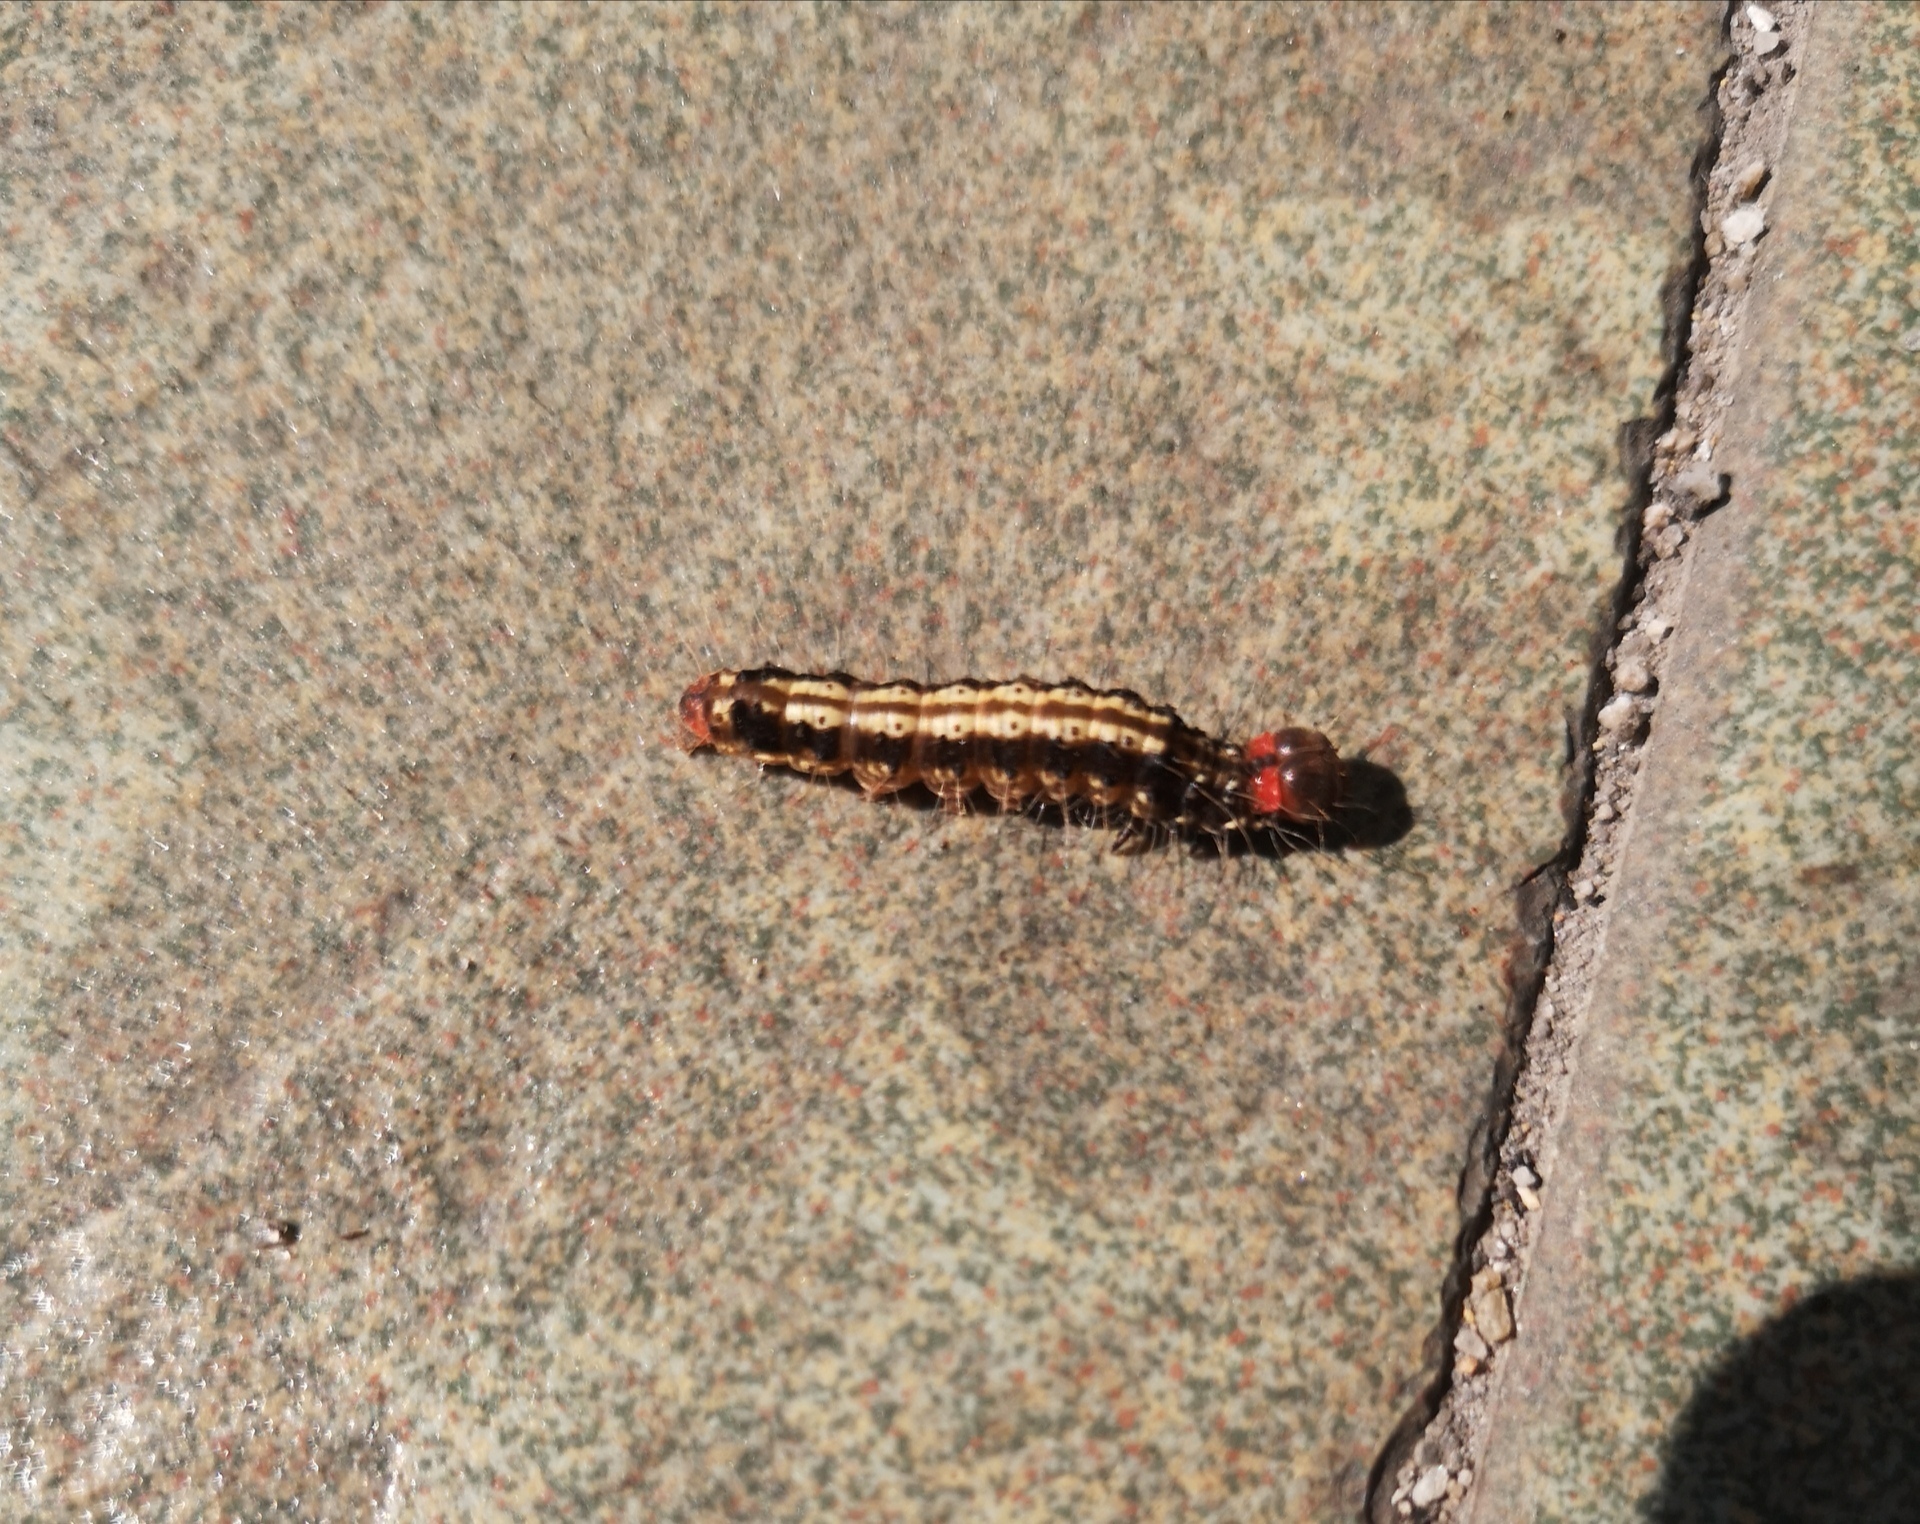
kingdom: Animalia
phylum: Arthropoda
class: Insecta
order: Lepidoptera
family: Erebidae
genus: Asota
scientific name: Asota caricae
